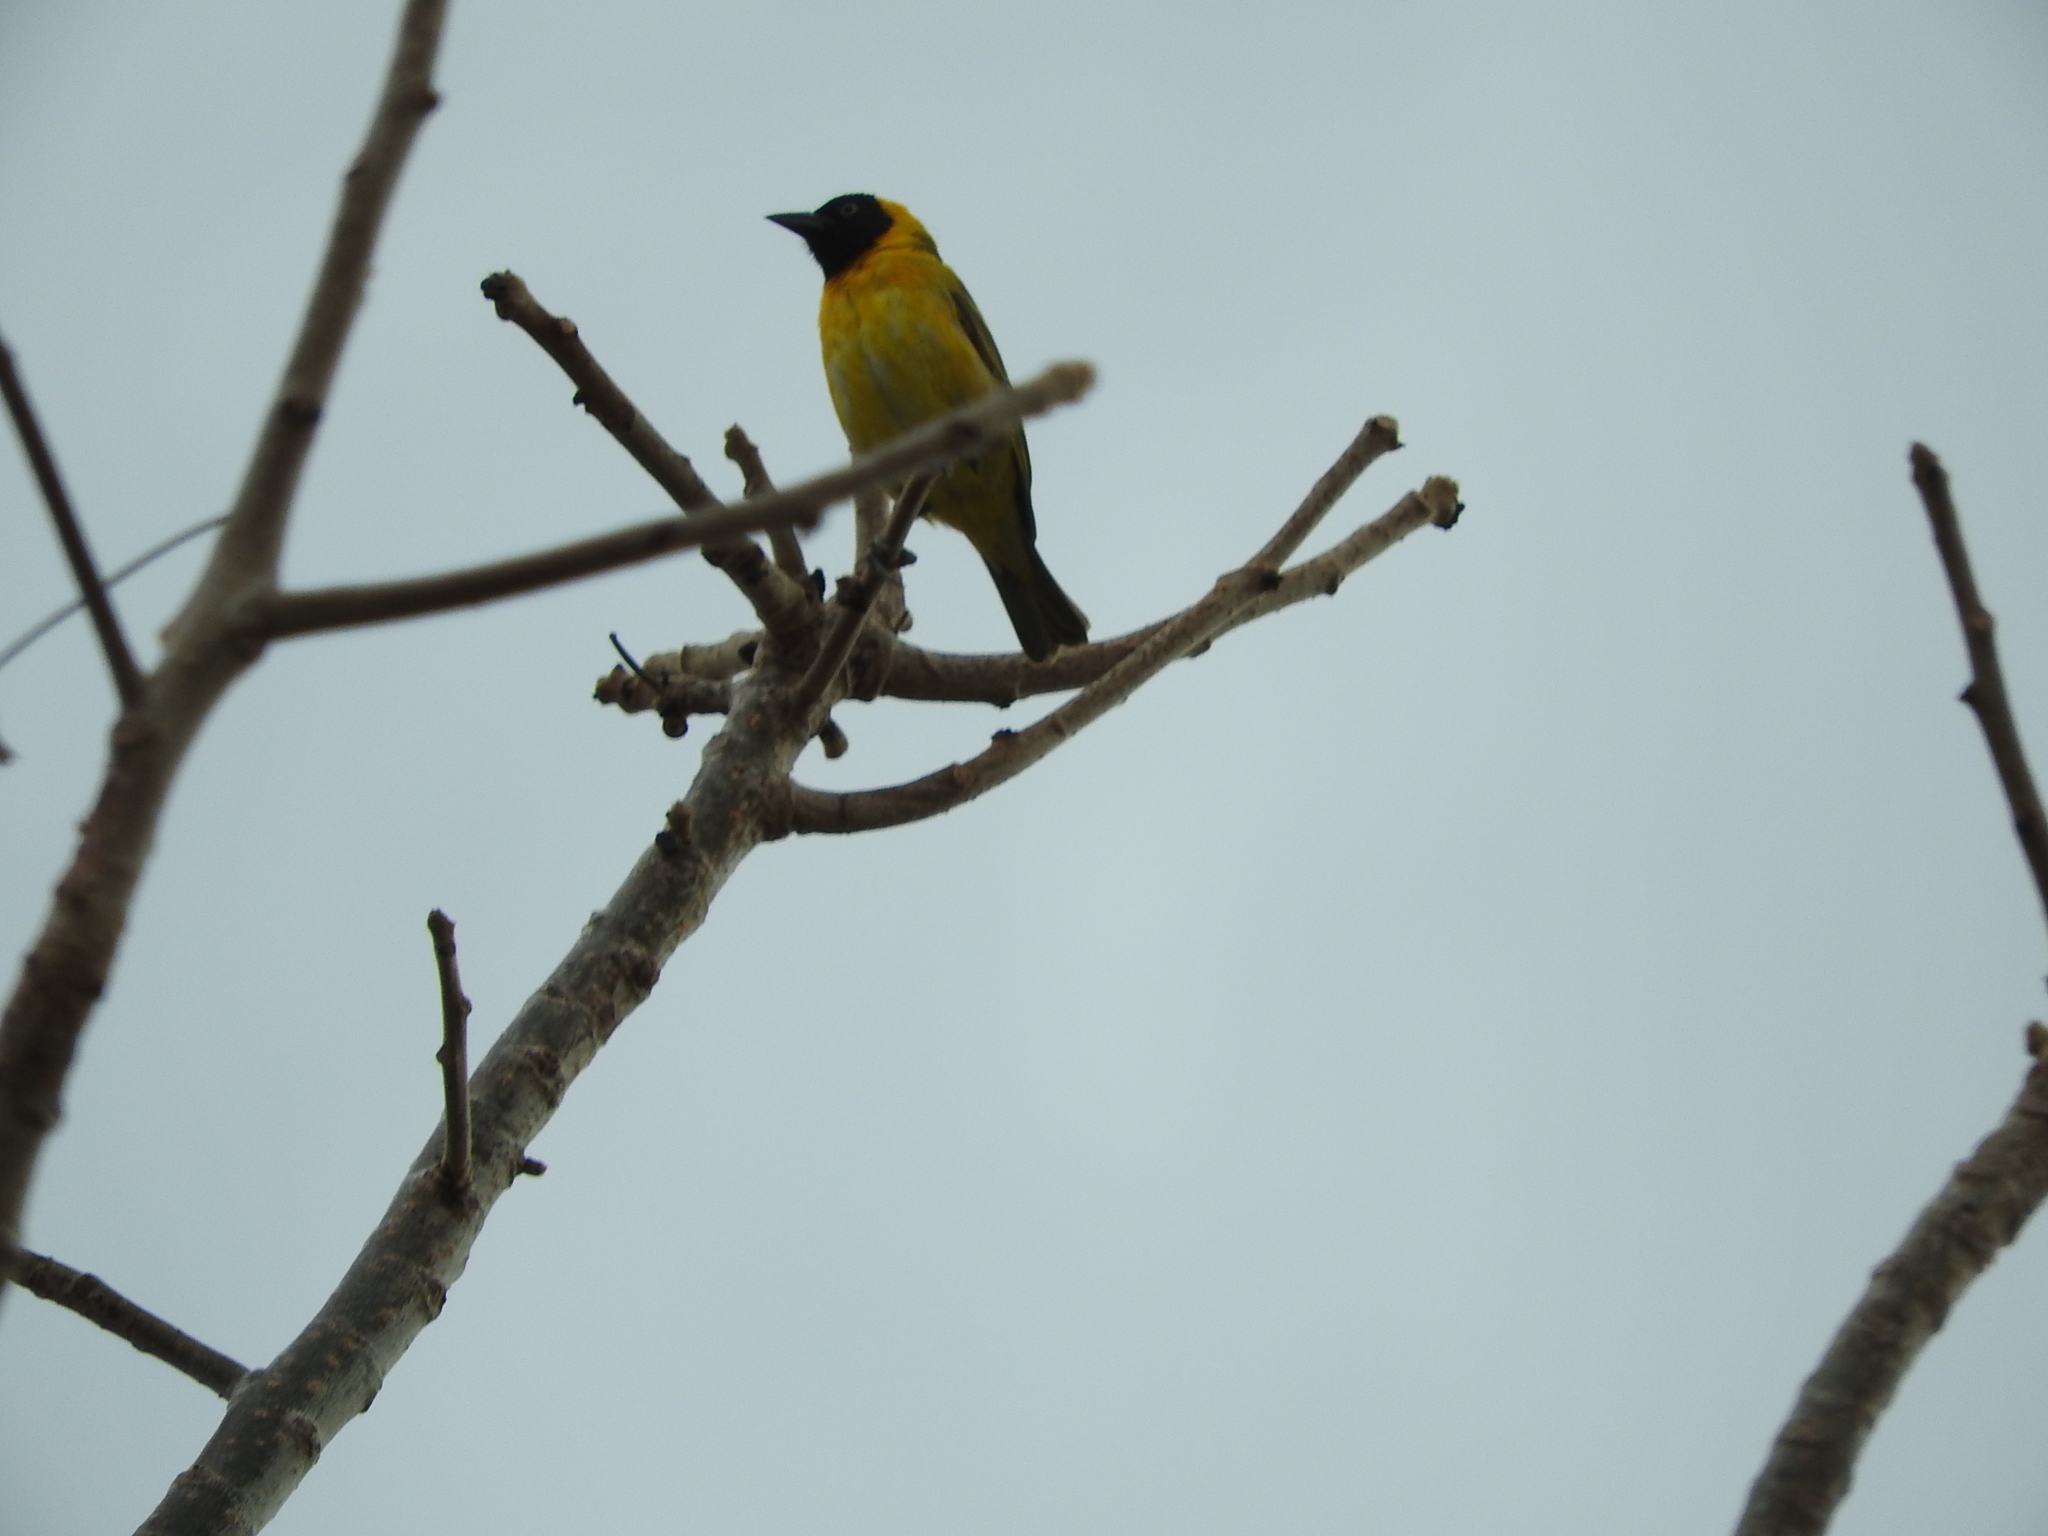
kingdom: Animalia
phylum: Chordata
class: Aves
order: Passeriformes
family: Ploceidae
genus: Ploceus
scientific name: Ploceus intermedius
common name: Lesser masked weaver
